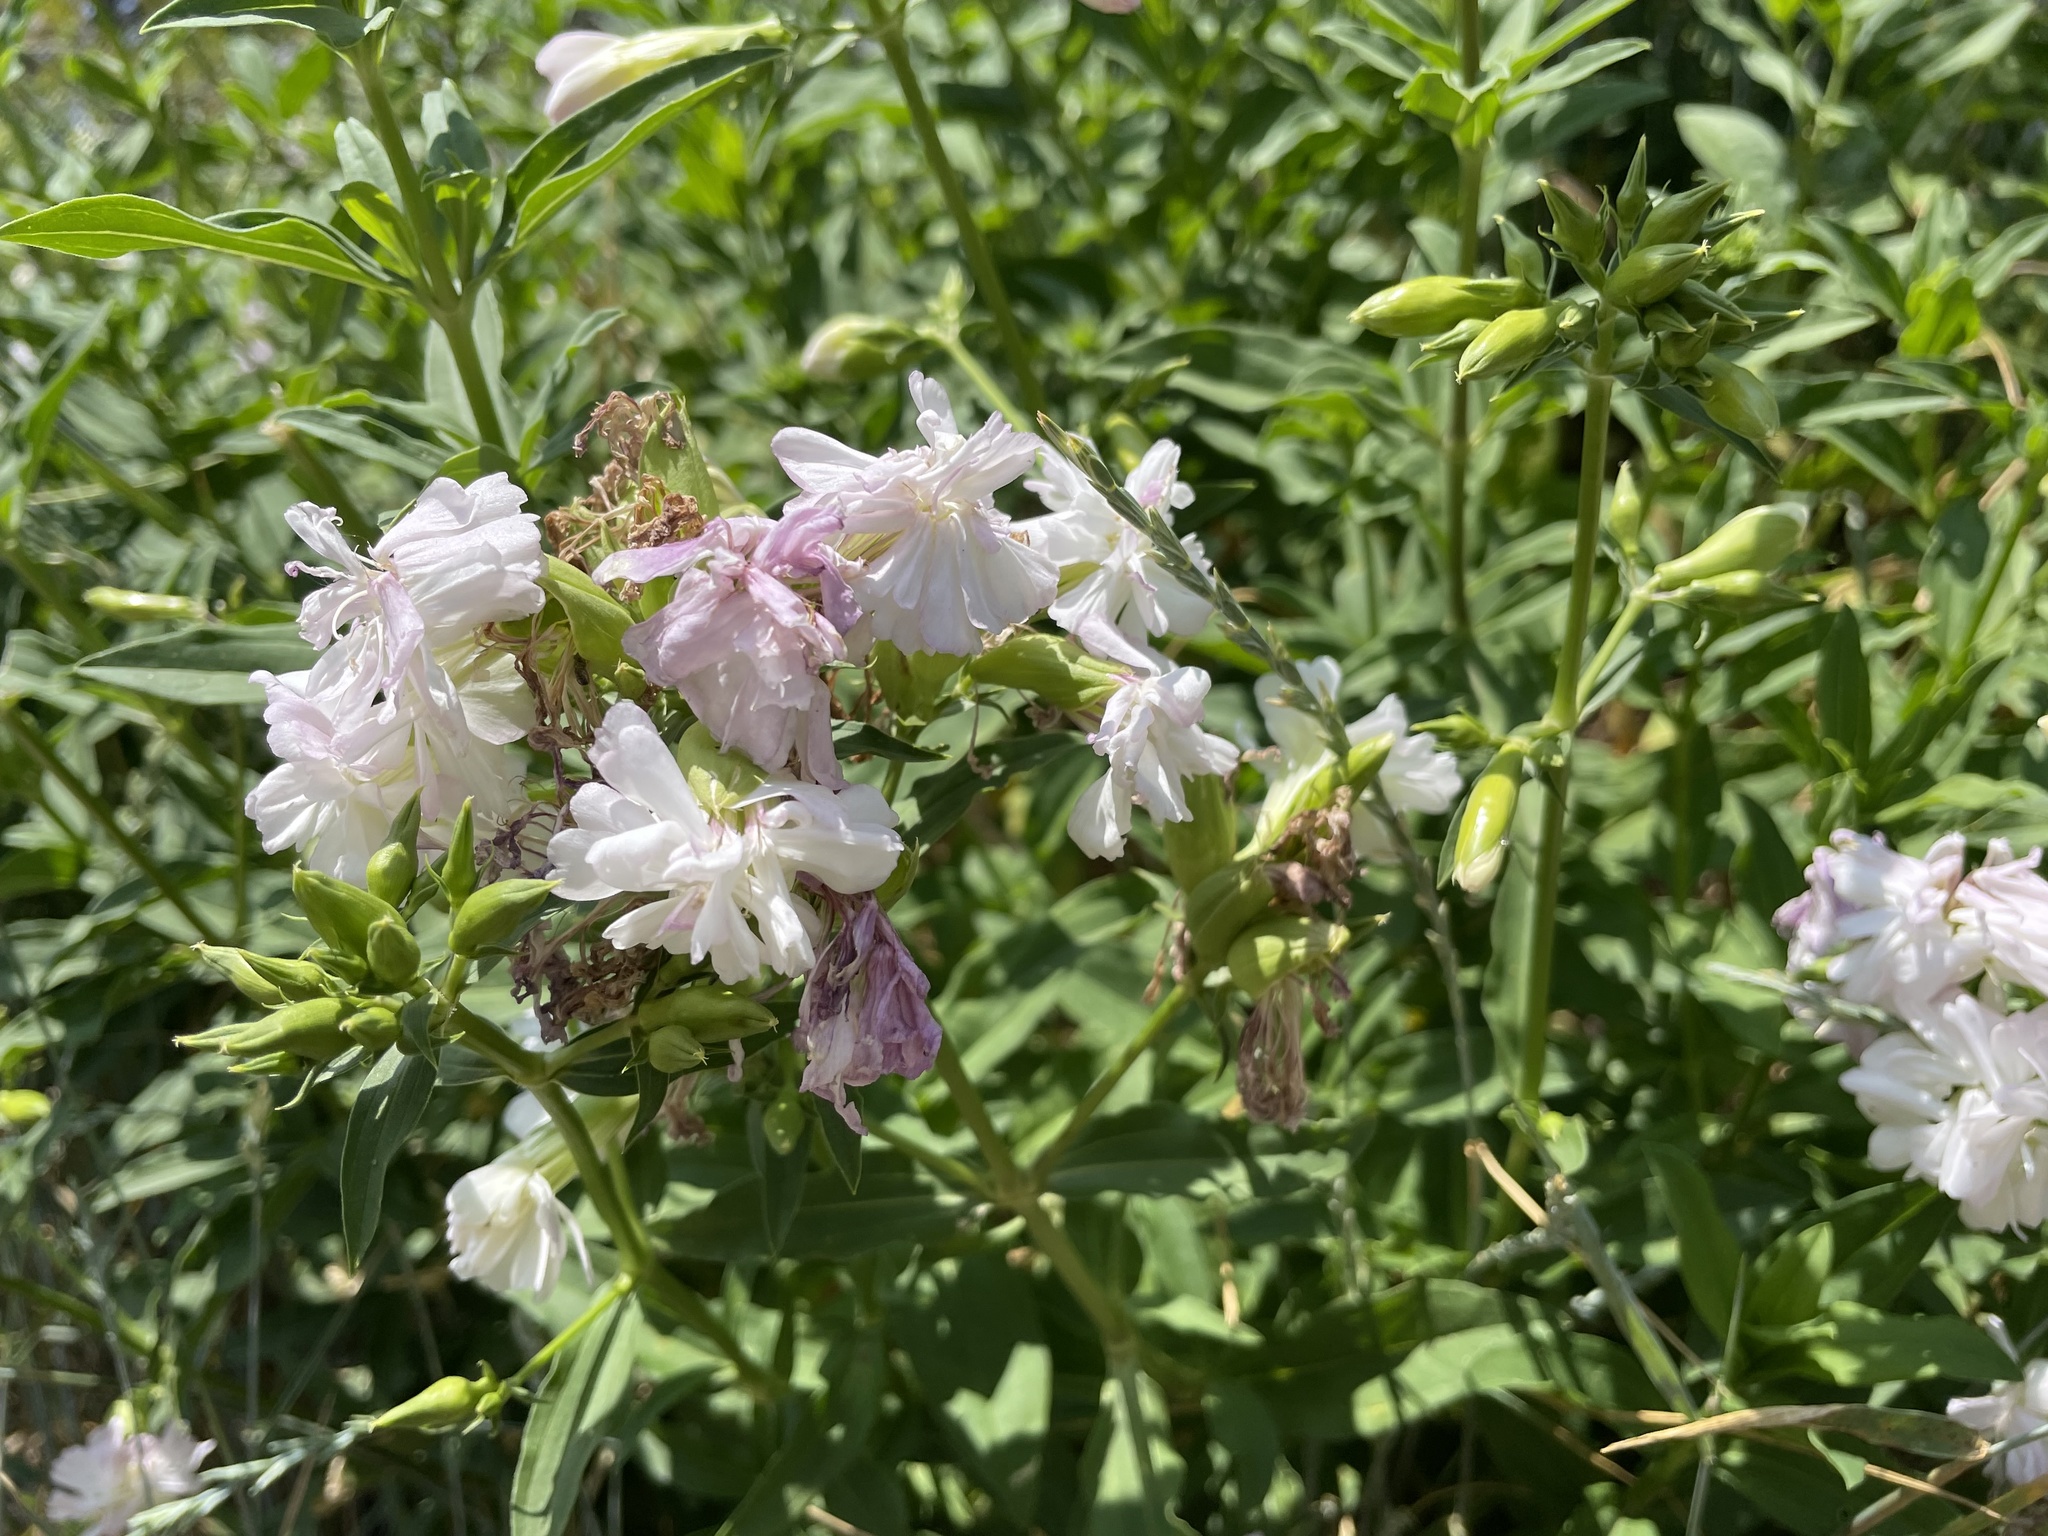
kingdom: Plantae
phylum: Tracheophyta
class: Magnoliopsida
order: Caryophyllales
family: Caryophyllaceae
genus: Saponaria
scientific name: Saponaria officinalis
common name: Soapwort
